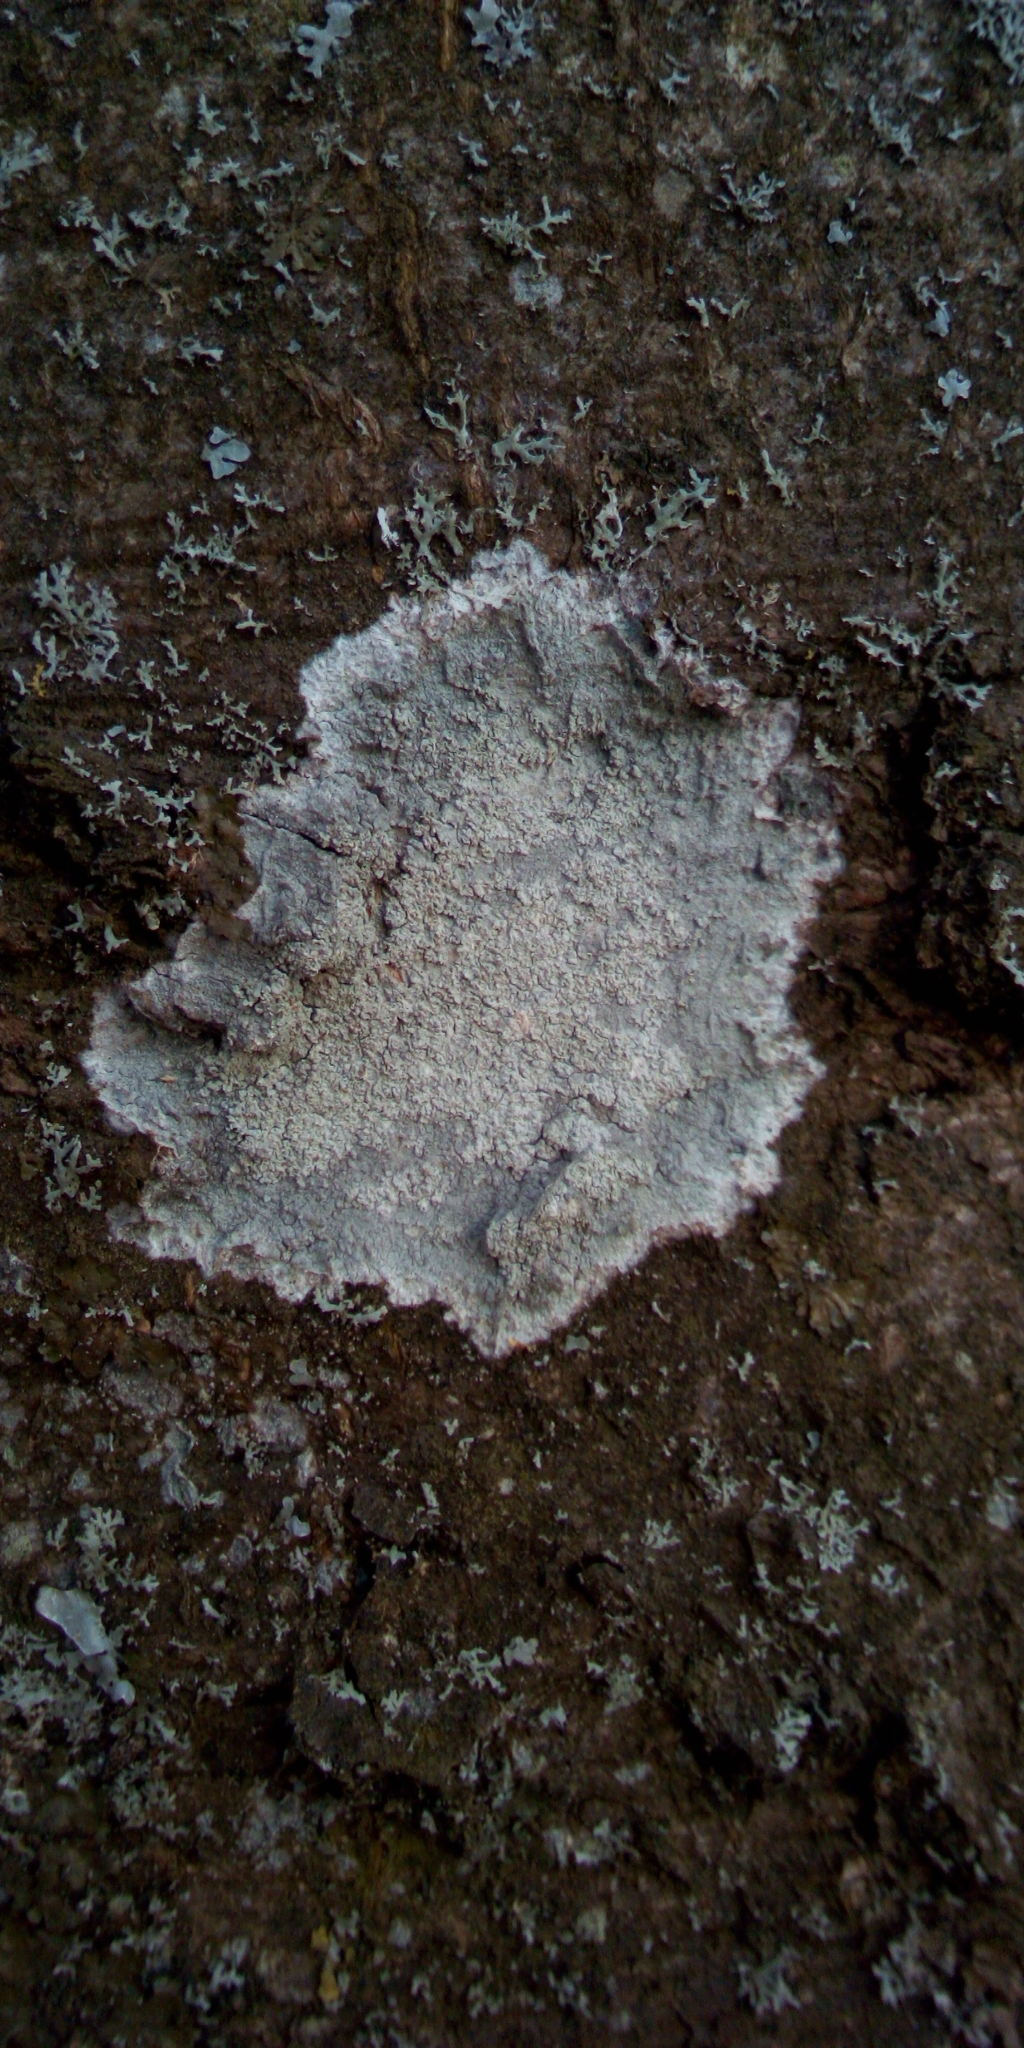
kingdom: Fungi
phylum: Ascomycota
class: Lecanoromycetes
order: Ostropales
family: Phlyctidaceae
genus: Phlyctis
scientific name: Phlyctis argena
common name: Whitewash lichen
